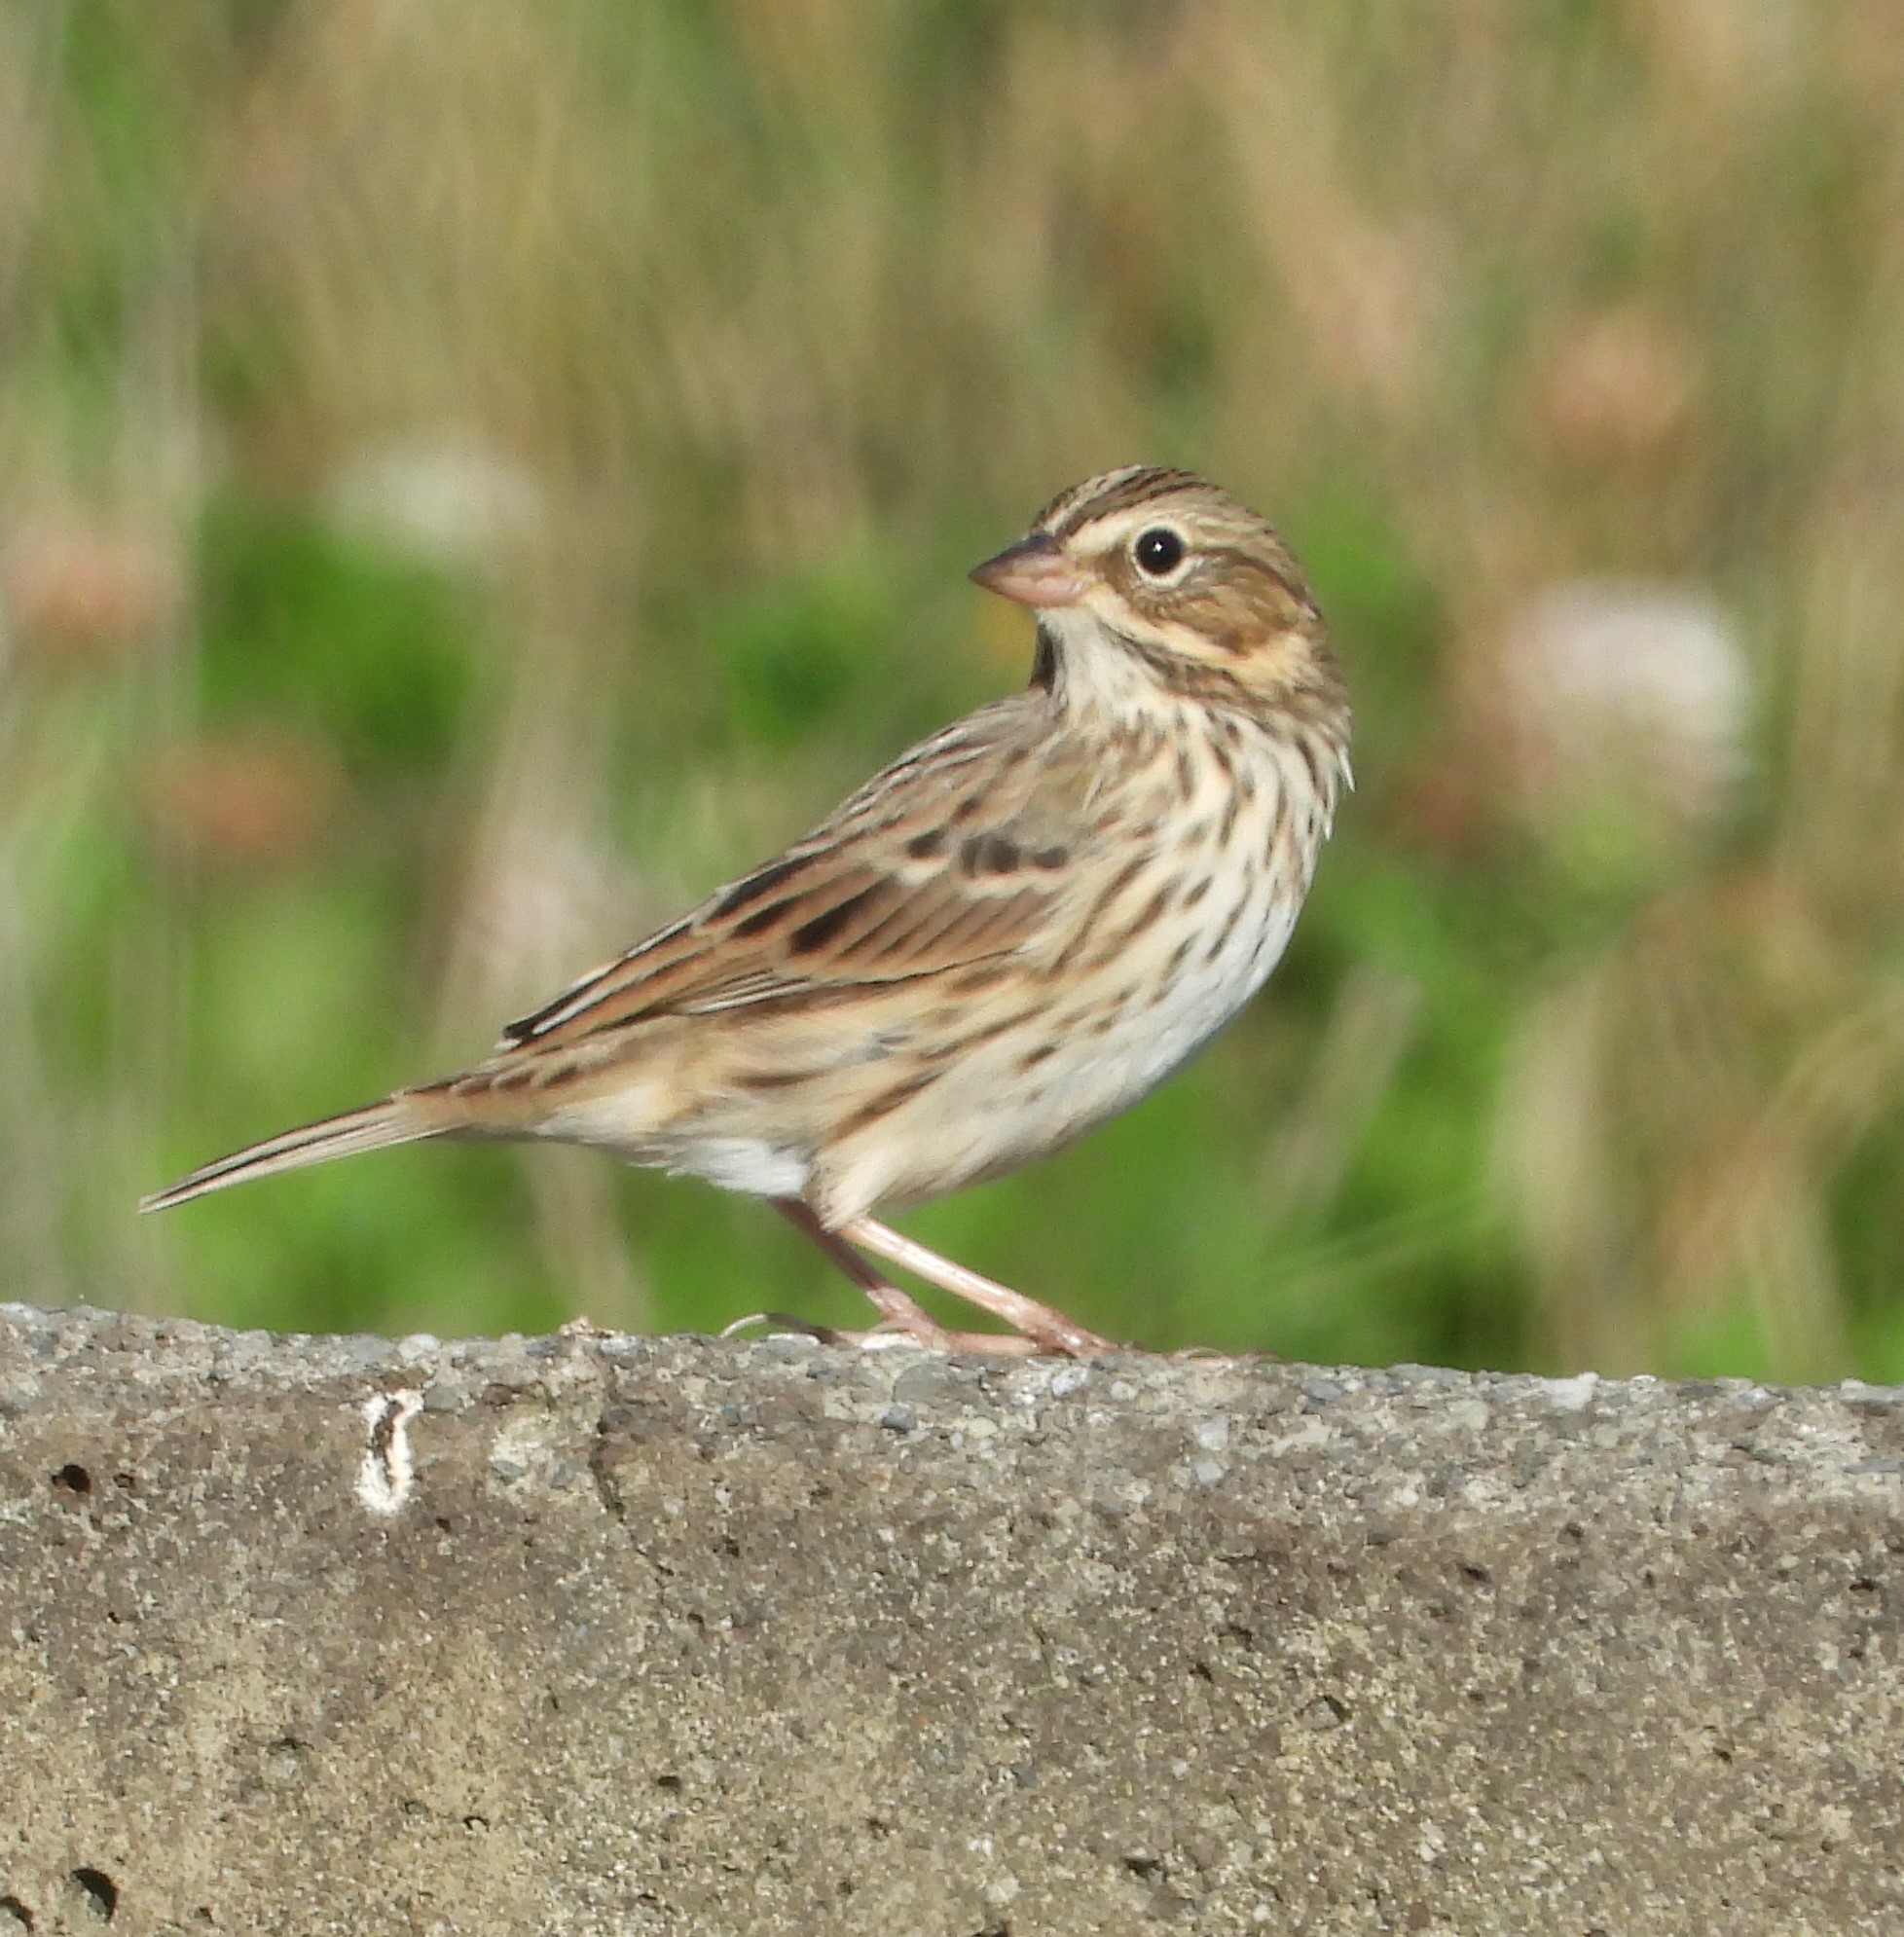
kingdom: Animalia
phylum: Chordata
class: Aves
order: Passeriformes
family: Passerellidae
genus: Passerculus
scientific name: Passerculus sandwichensis
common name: Savannah sparrow
